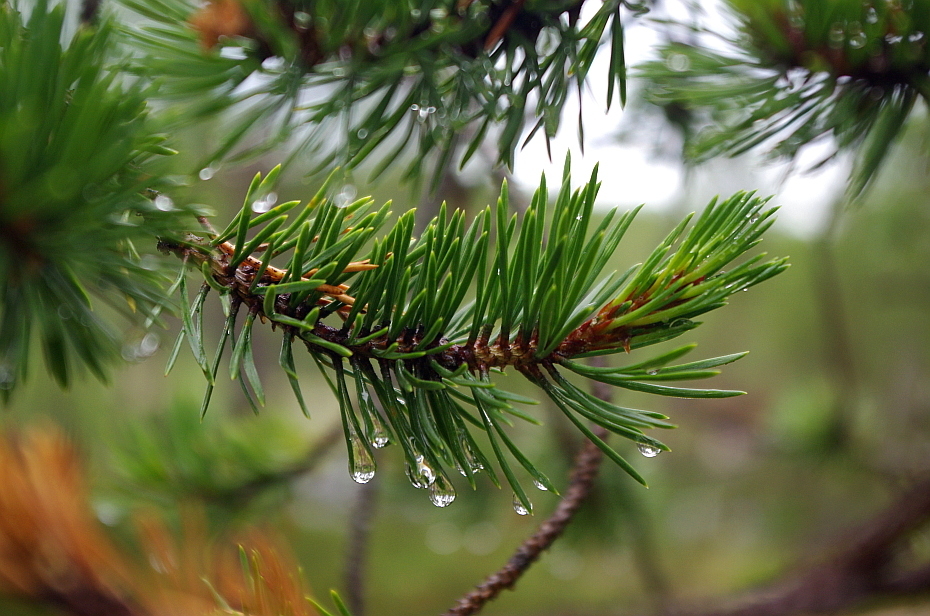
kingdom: Plantae
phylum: Tracheophyta
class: Pinopsida
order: Pinales
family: Pinaceae
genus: Pinus
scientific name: Pinus sylvestris
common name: Scots pine
